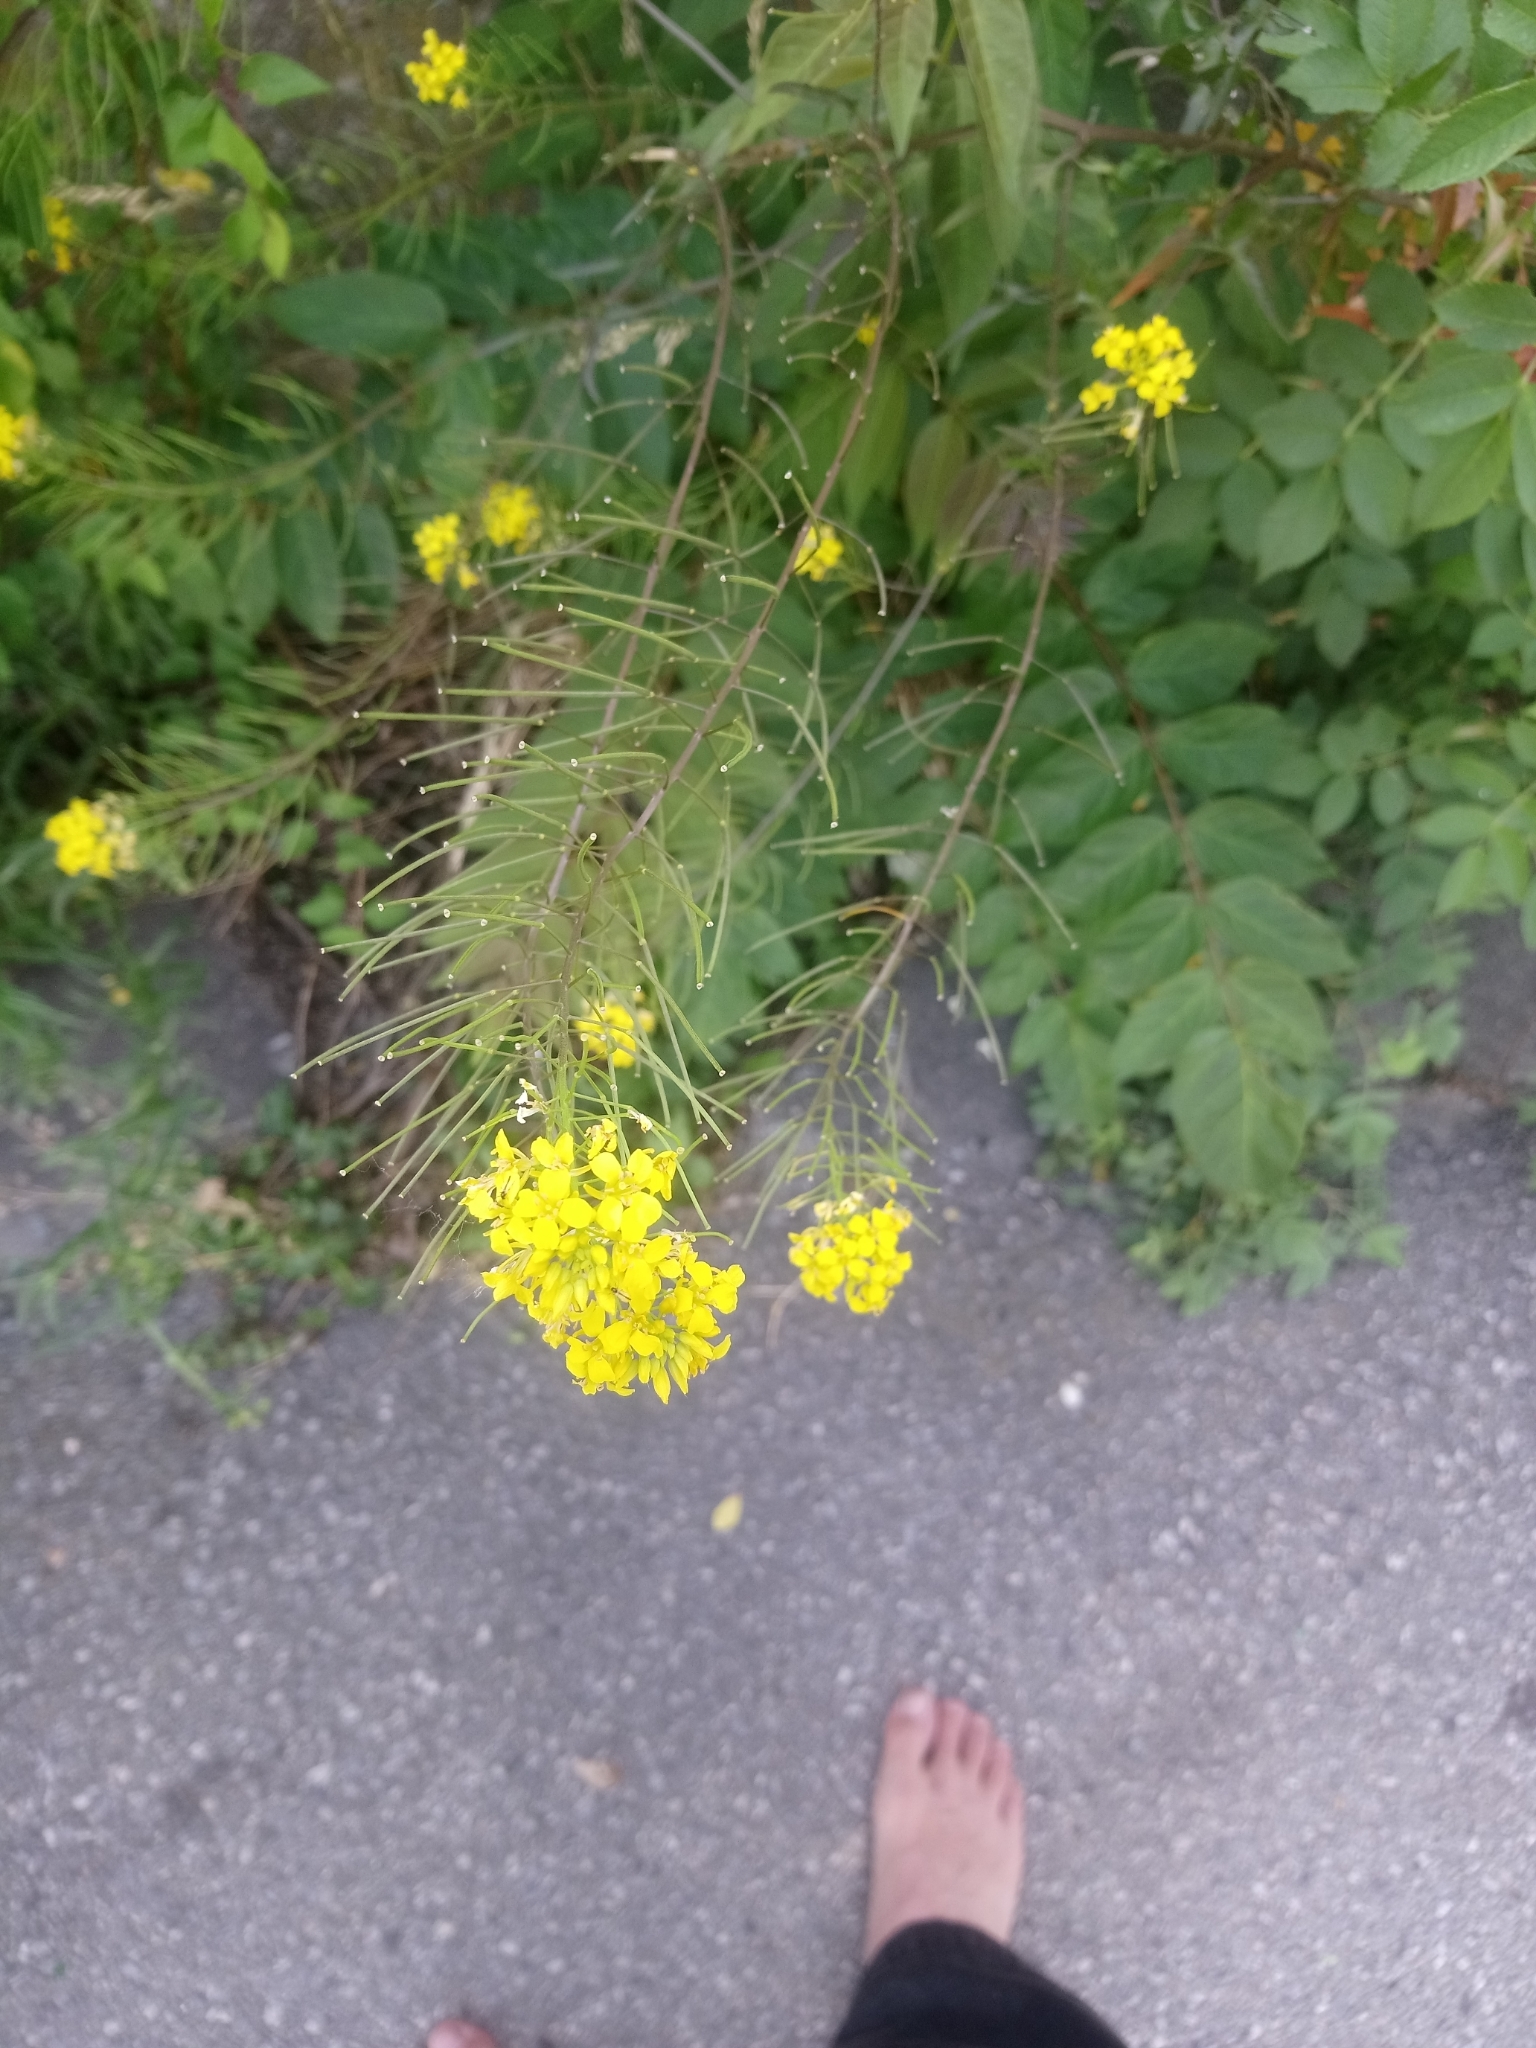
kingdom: Plantae
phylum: Tracheophyta
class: Magnoliopsida
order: Brassicales
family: Brassicaceae
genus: Sisymbrium
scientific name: Sisymbrium loeselii
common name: False london-rocket
